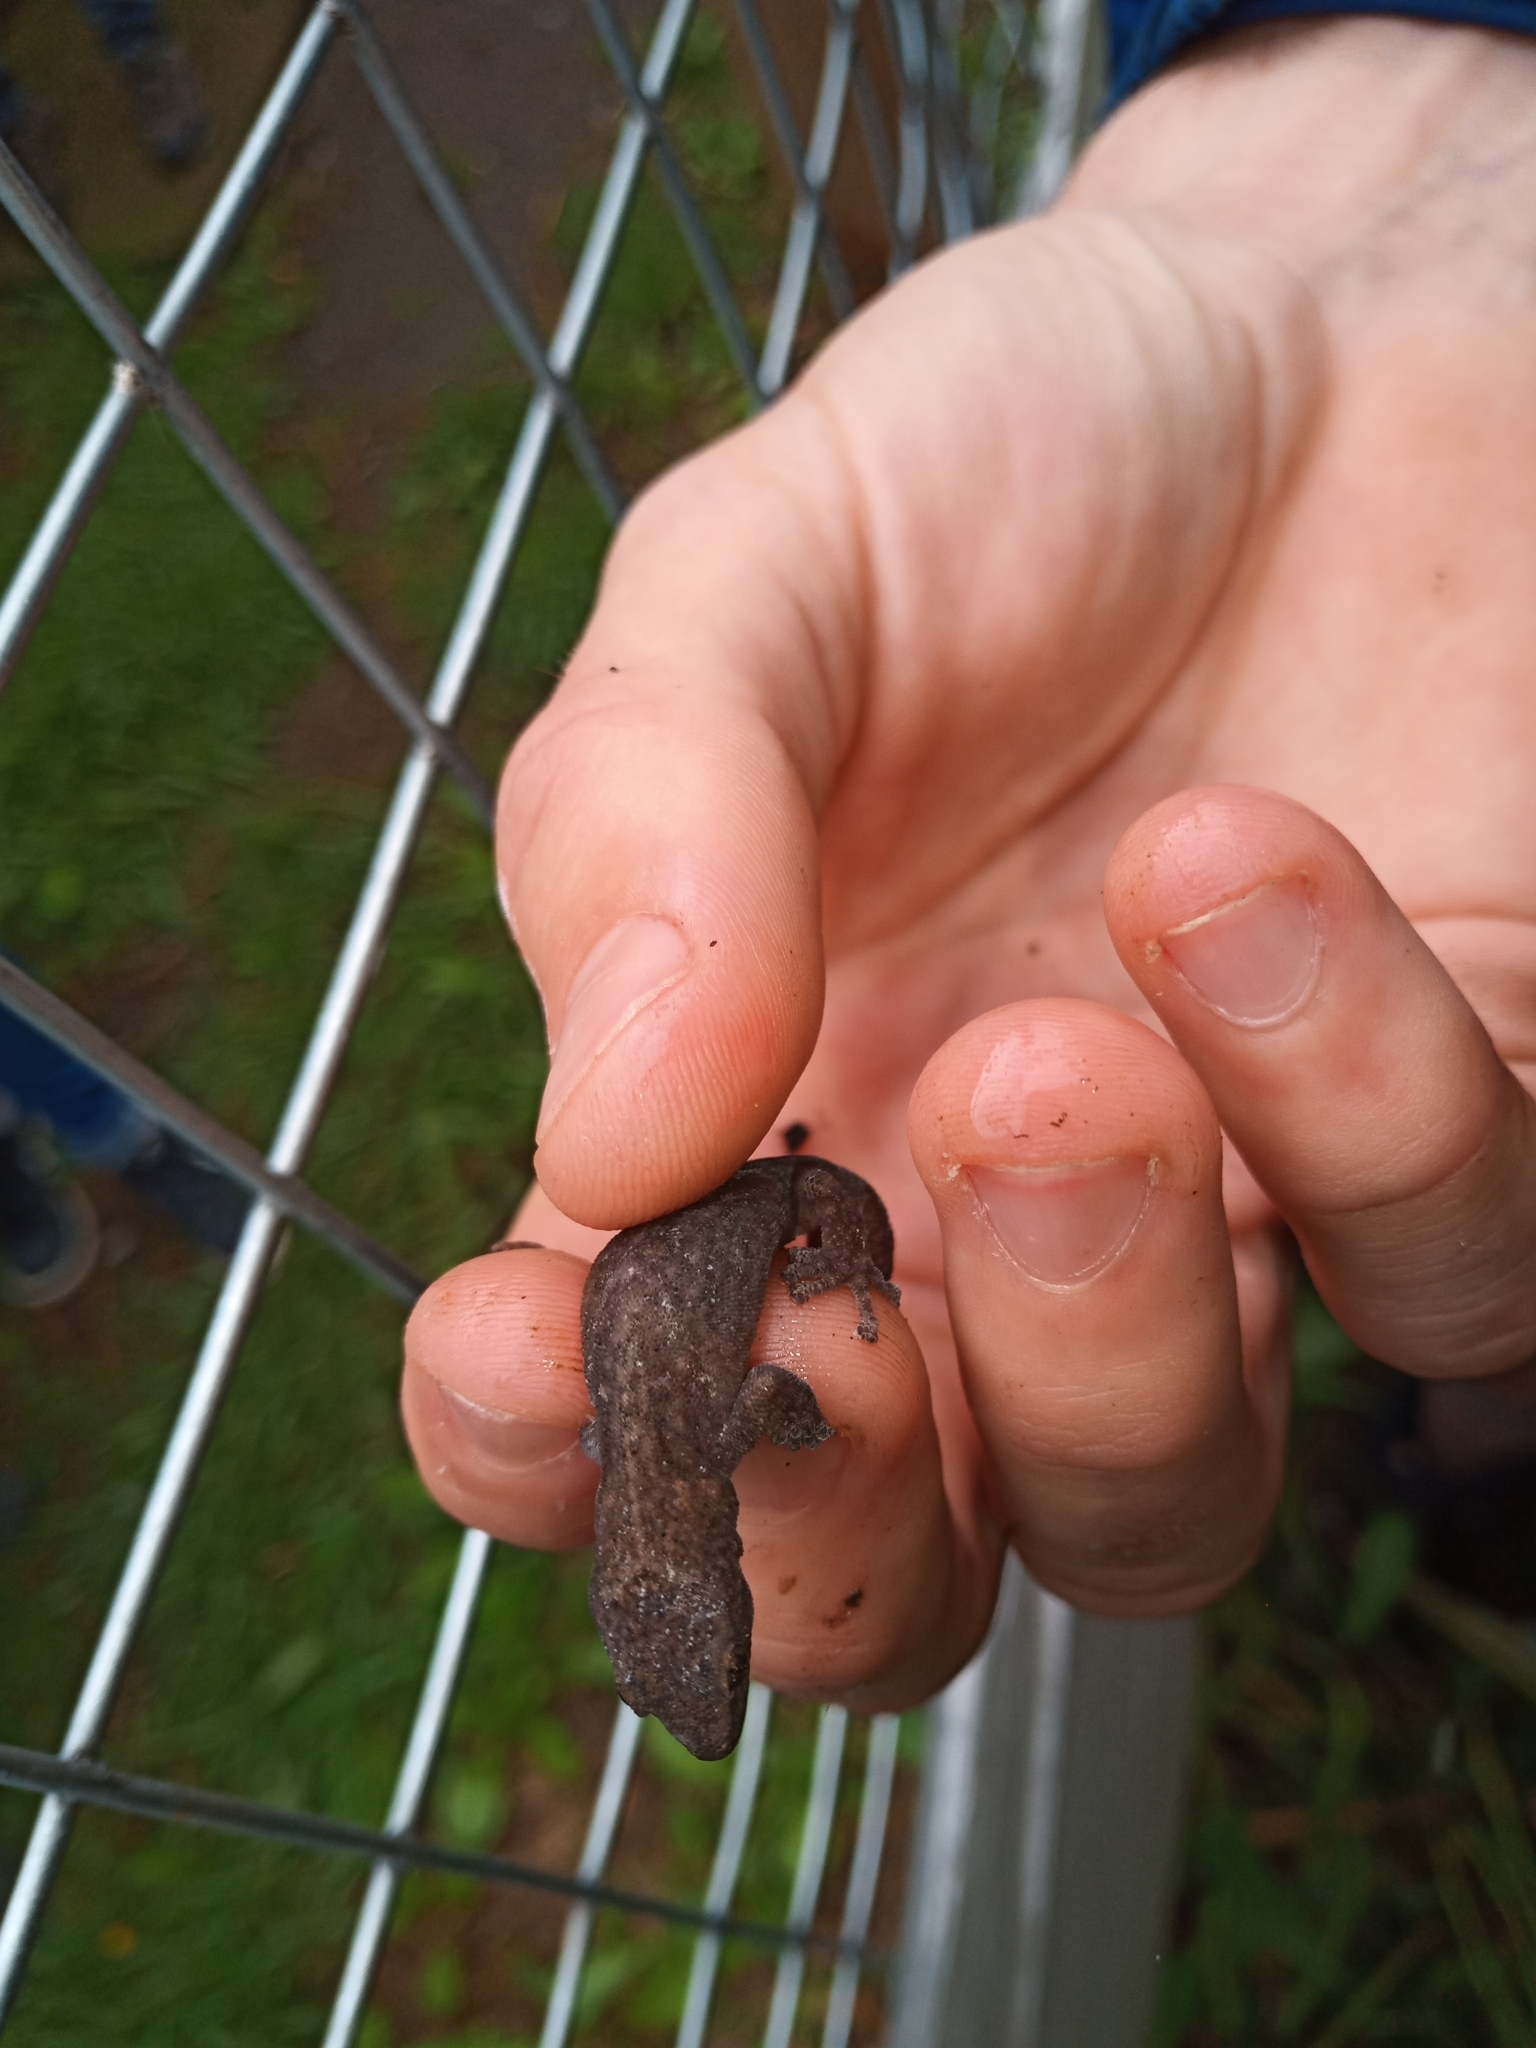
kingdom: Animalia
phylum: Chordata
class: Squamata
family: Gekkonidae
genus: Afrogecko
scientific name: Afrogecko porphyreus
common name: Marbled leaf-toed gecko
